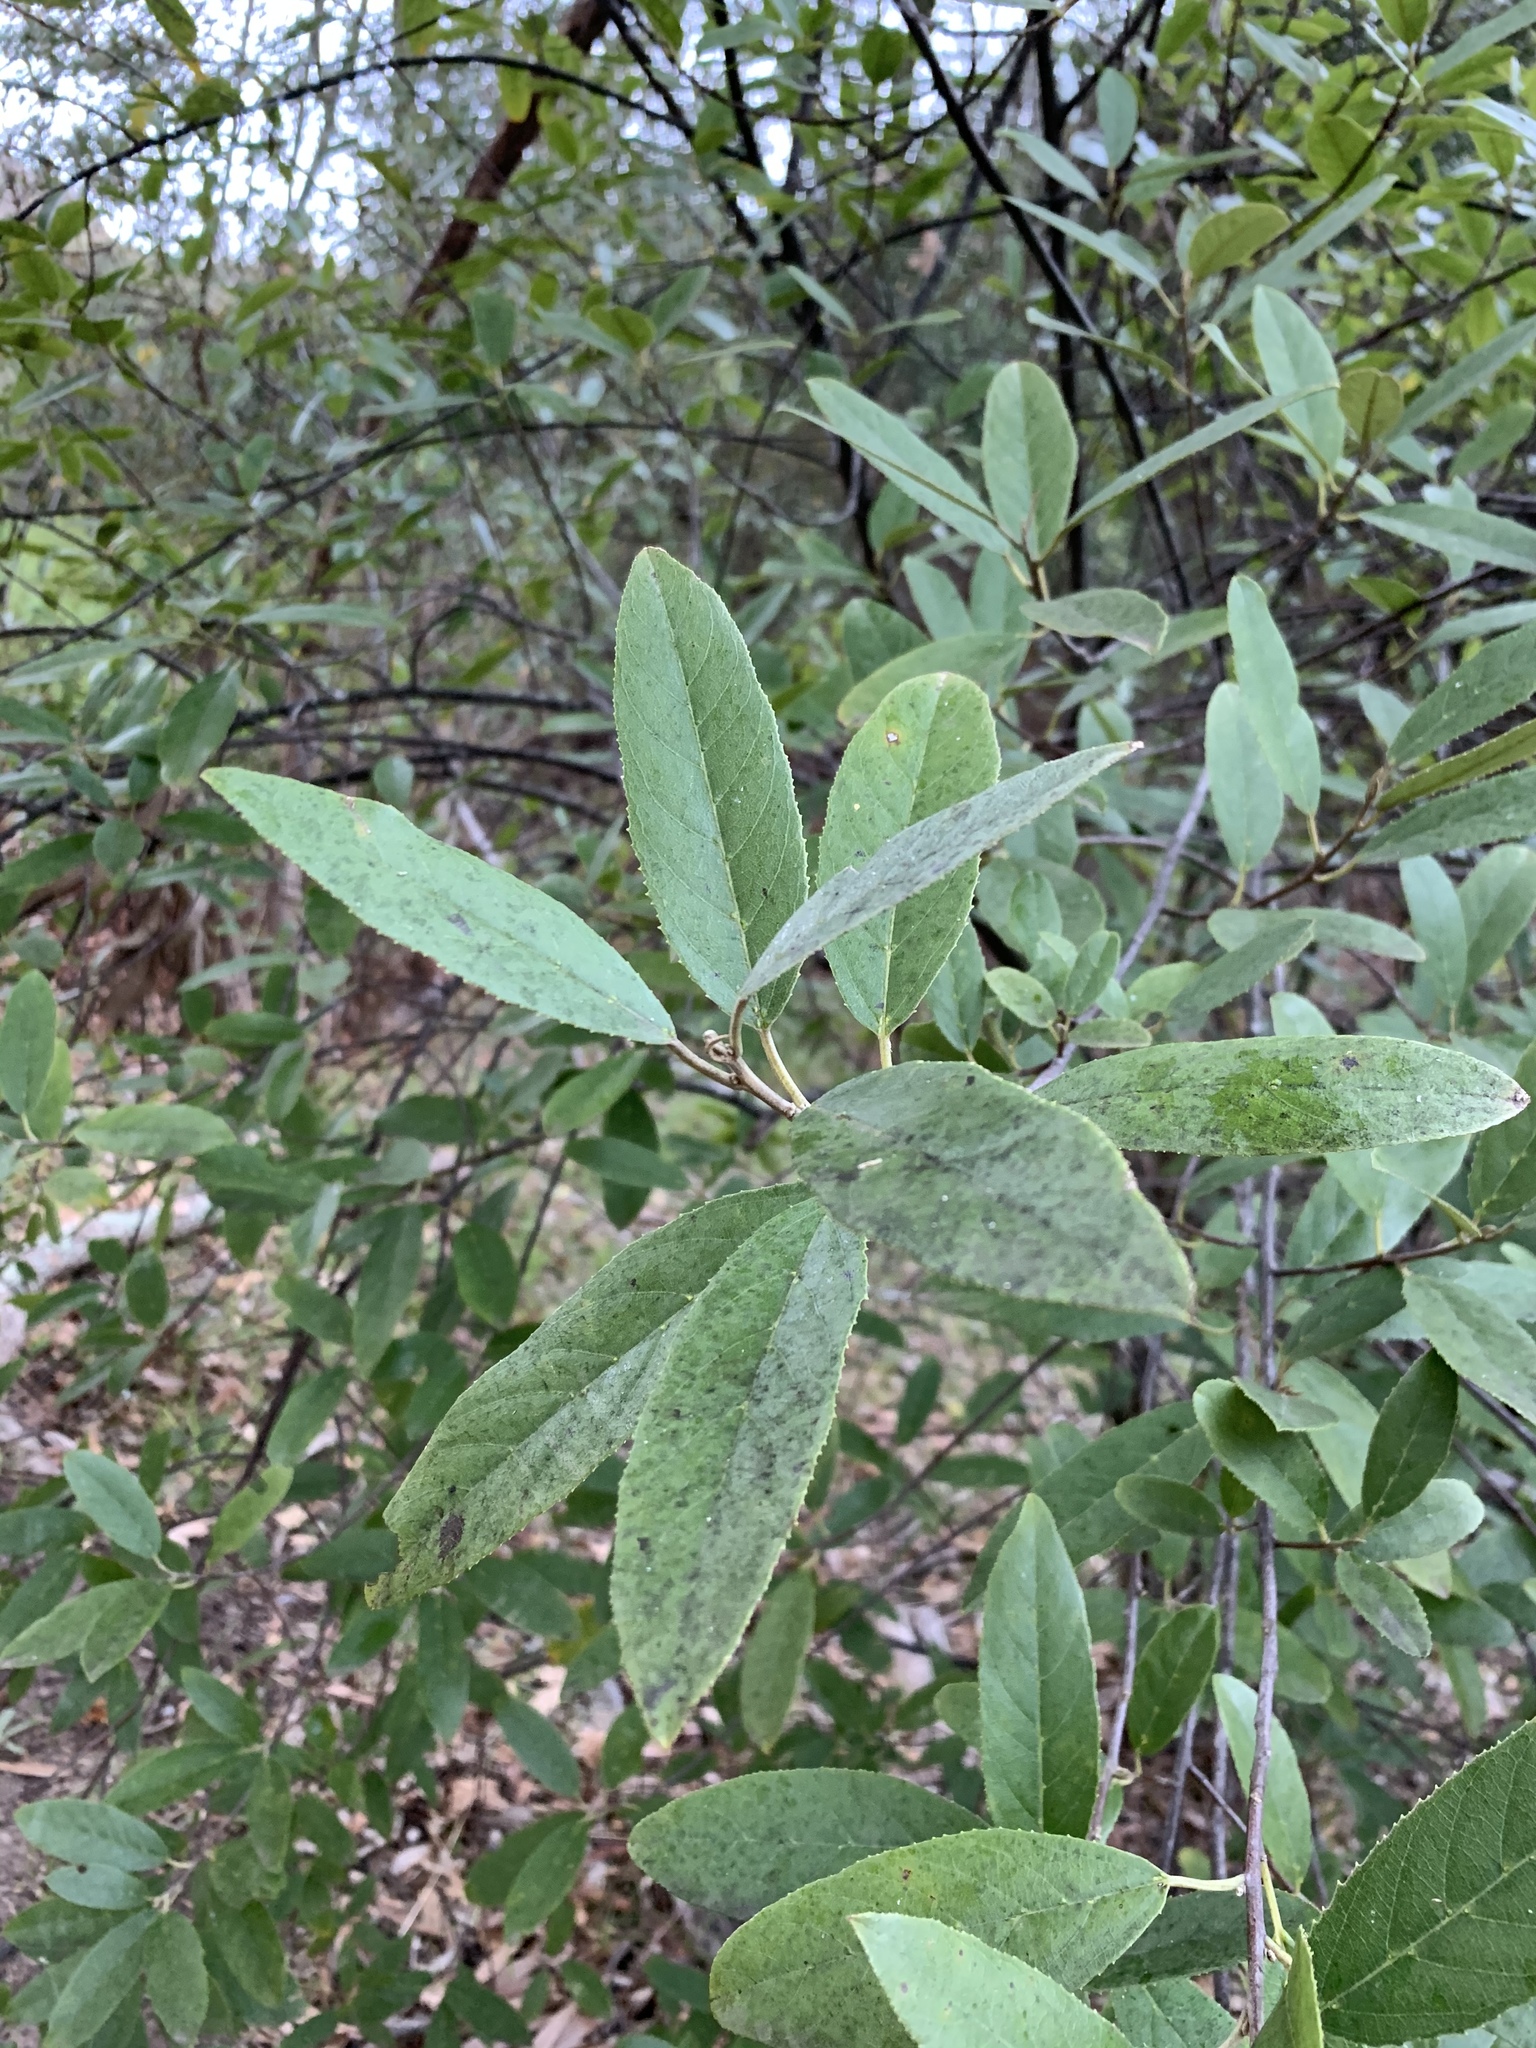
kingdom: Plantae
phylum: Tracheophyta
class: Magnoliopsida
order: Malpighiales
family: Achariaceae
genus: Kiggelaria
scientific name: Kiggelaria africana
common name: Wild peach
